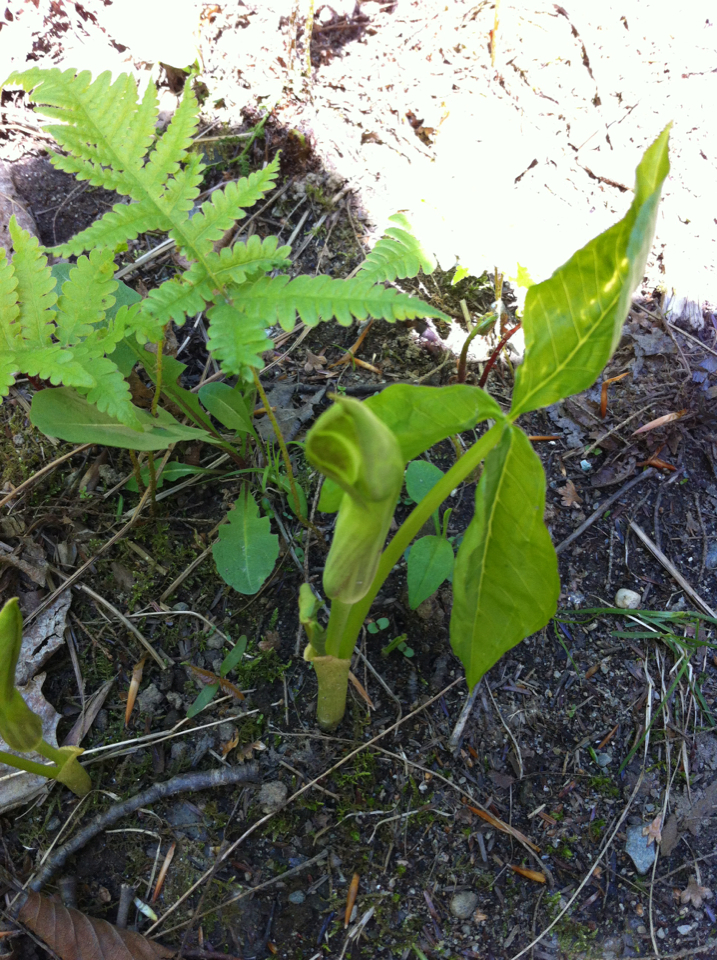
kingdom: Plantae
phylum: Tracheophyta
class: Liliopsida
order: Alismatales
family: Araceae
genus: Arisaema
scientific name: Arisaema triphyllum
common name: Jack-in-the-pulpit
